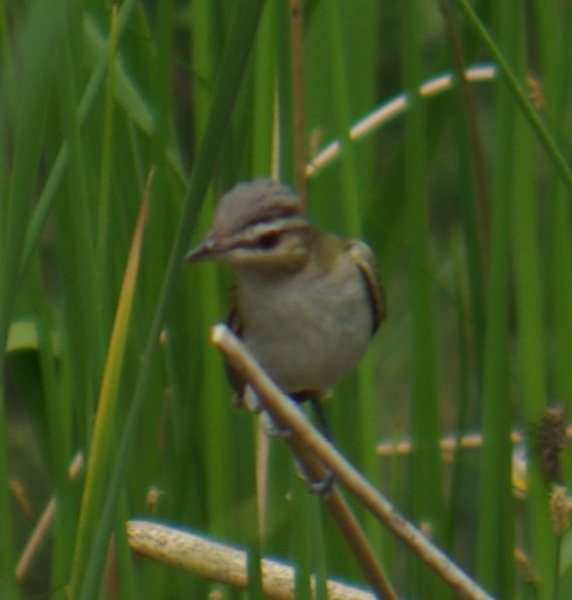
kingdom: Animalia
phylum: Chordata
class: Aves
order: Passeriformes
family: Vireonidae
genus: Vireo
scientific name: Vireo olivaceus
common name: Red-eyed vireo
